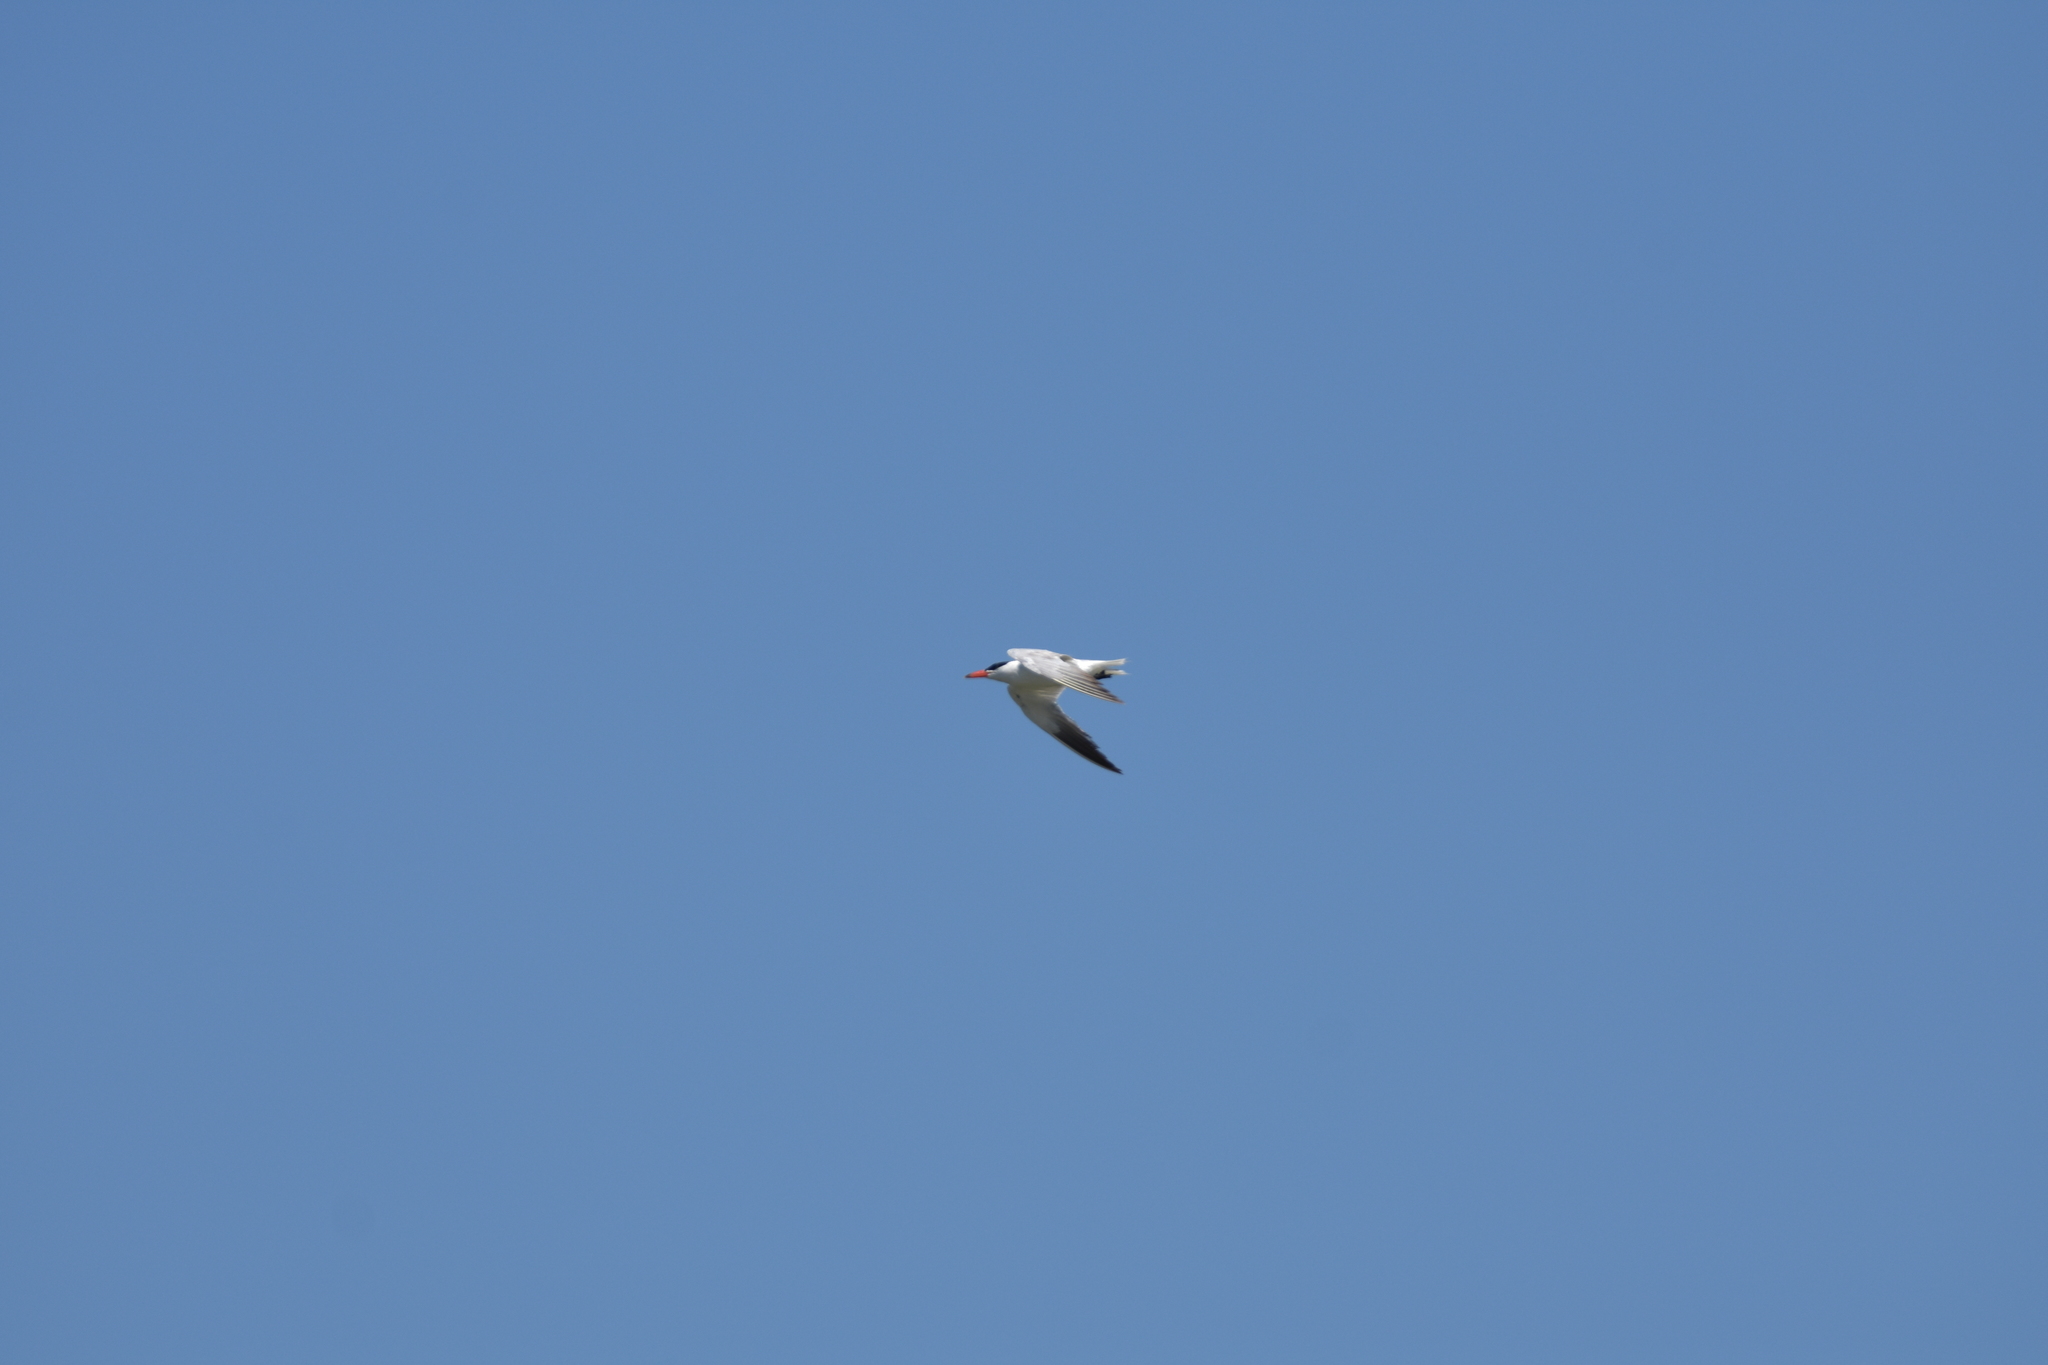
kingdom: Animalia
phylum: Chordata
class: Aves
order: Charadriiformes
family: Laridae
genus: Hydroprogne
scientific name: Hydroprogne caspia
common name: Caspian tern
